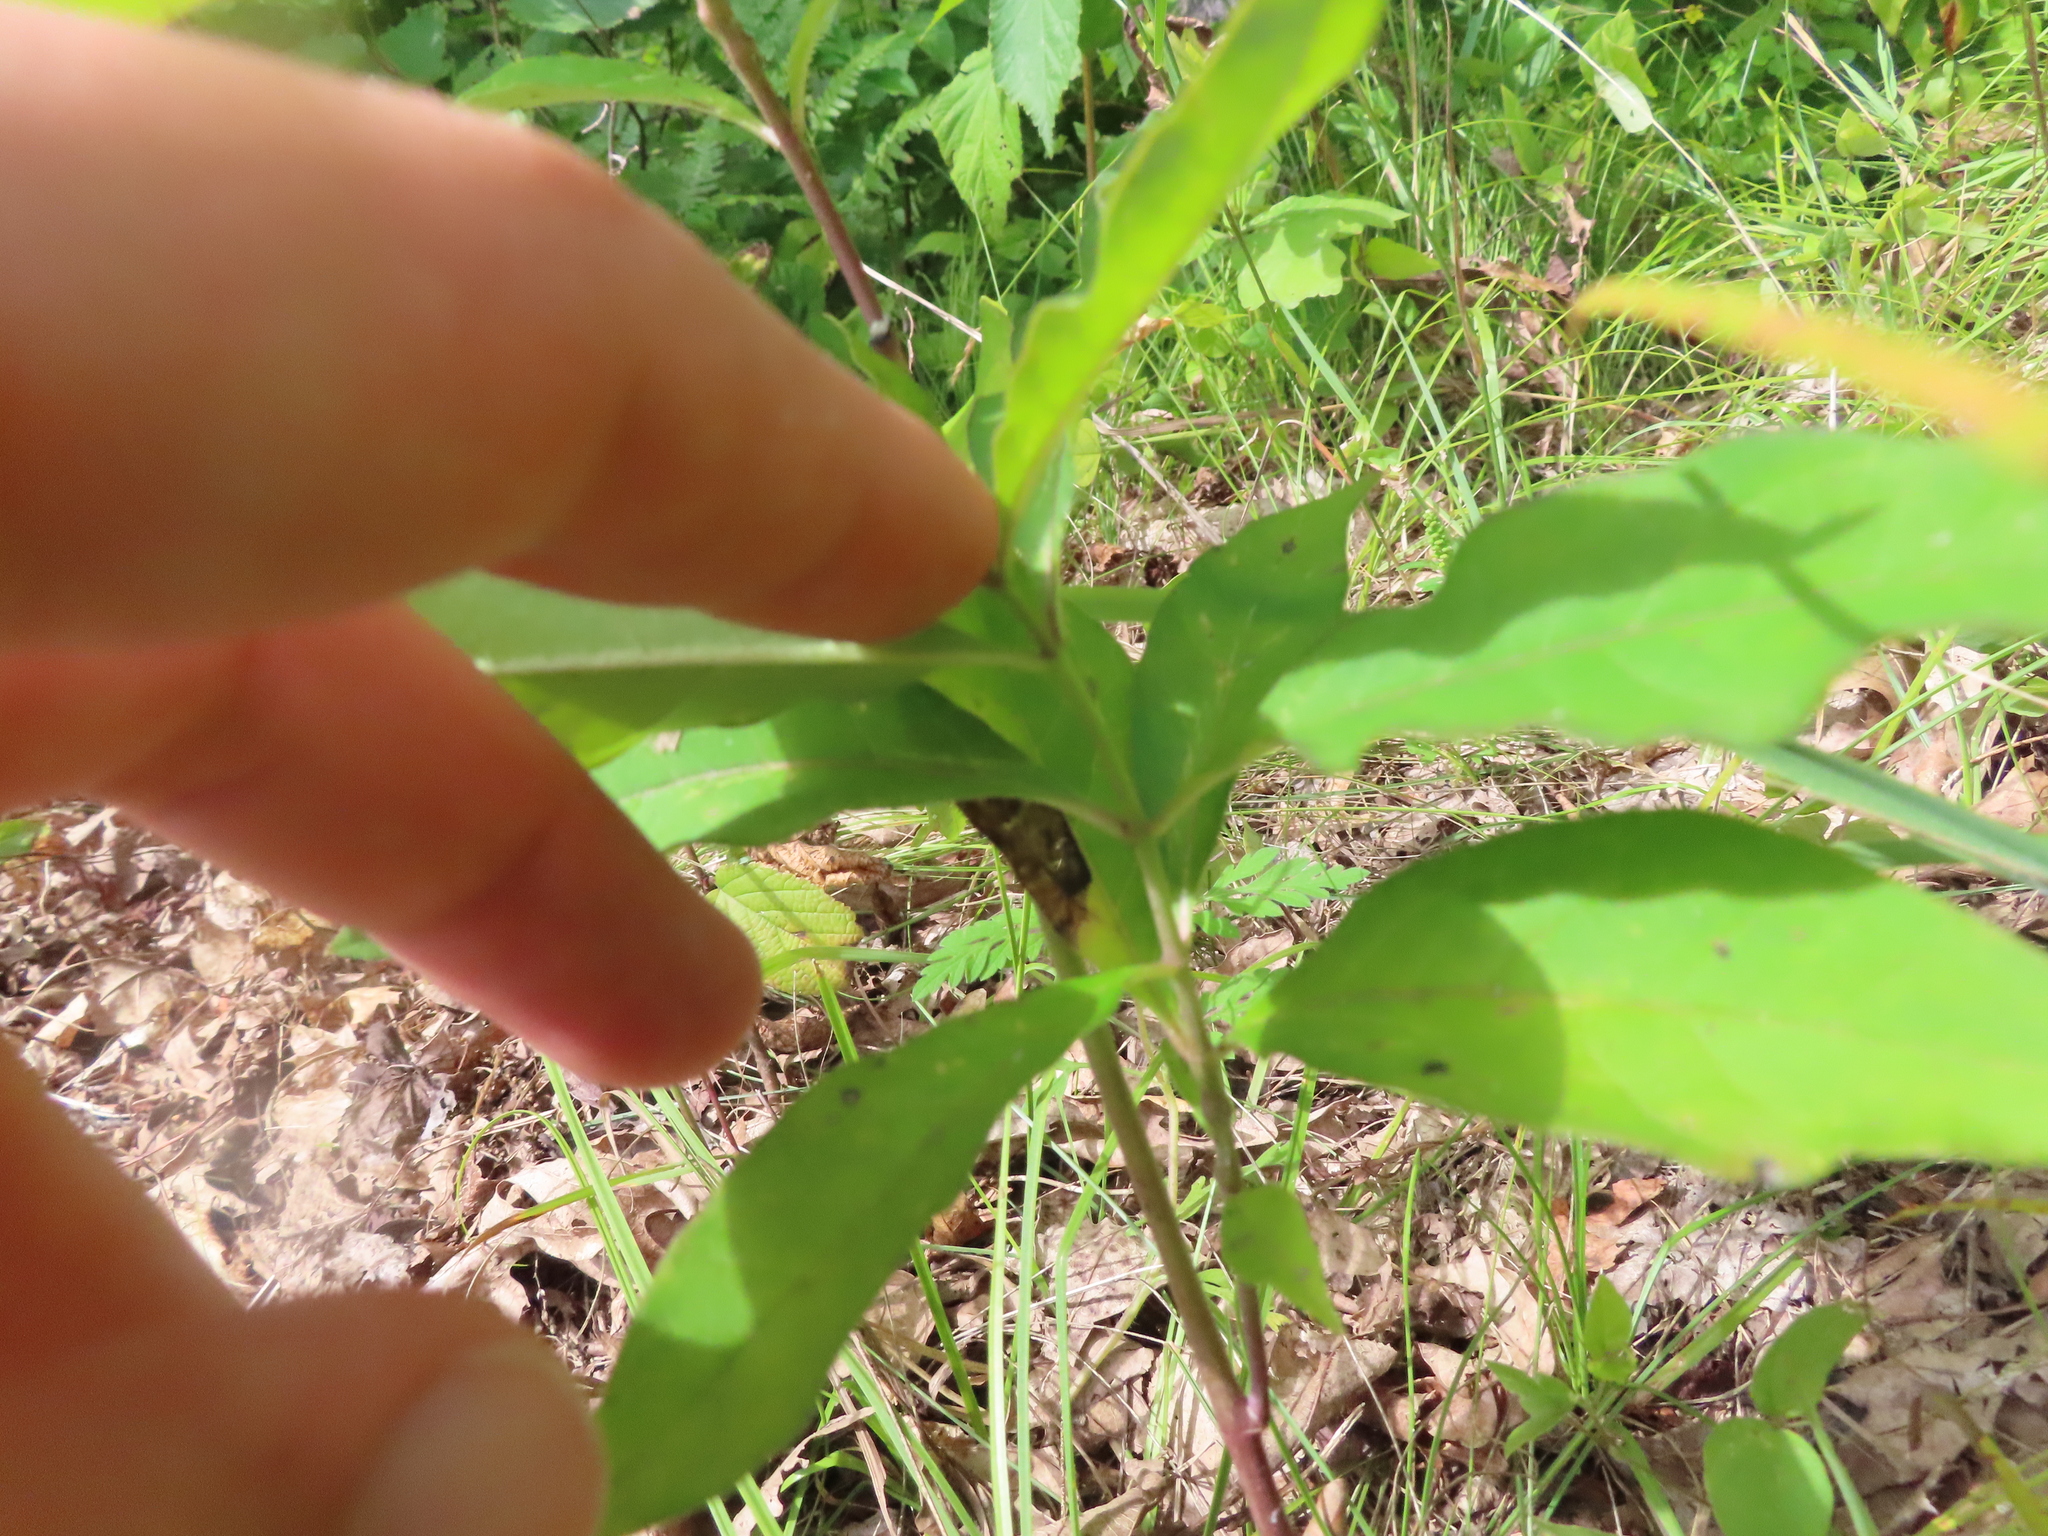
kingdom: Plantae
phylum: Tracheophyta
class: Magnoliopsida
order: Gentianales
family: Apocynaceae
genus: Asclepias
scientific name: Asclepias exaltata
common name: Poke milkweed
